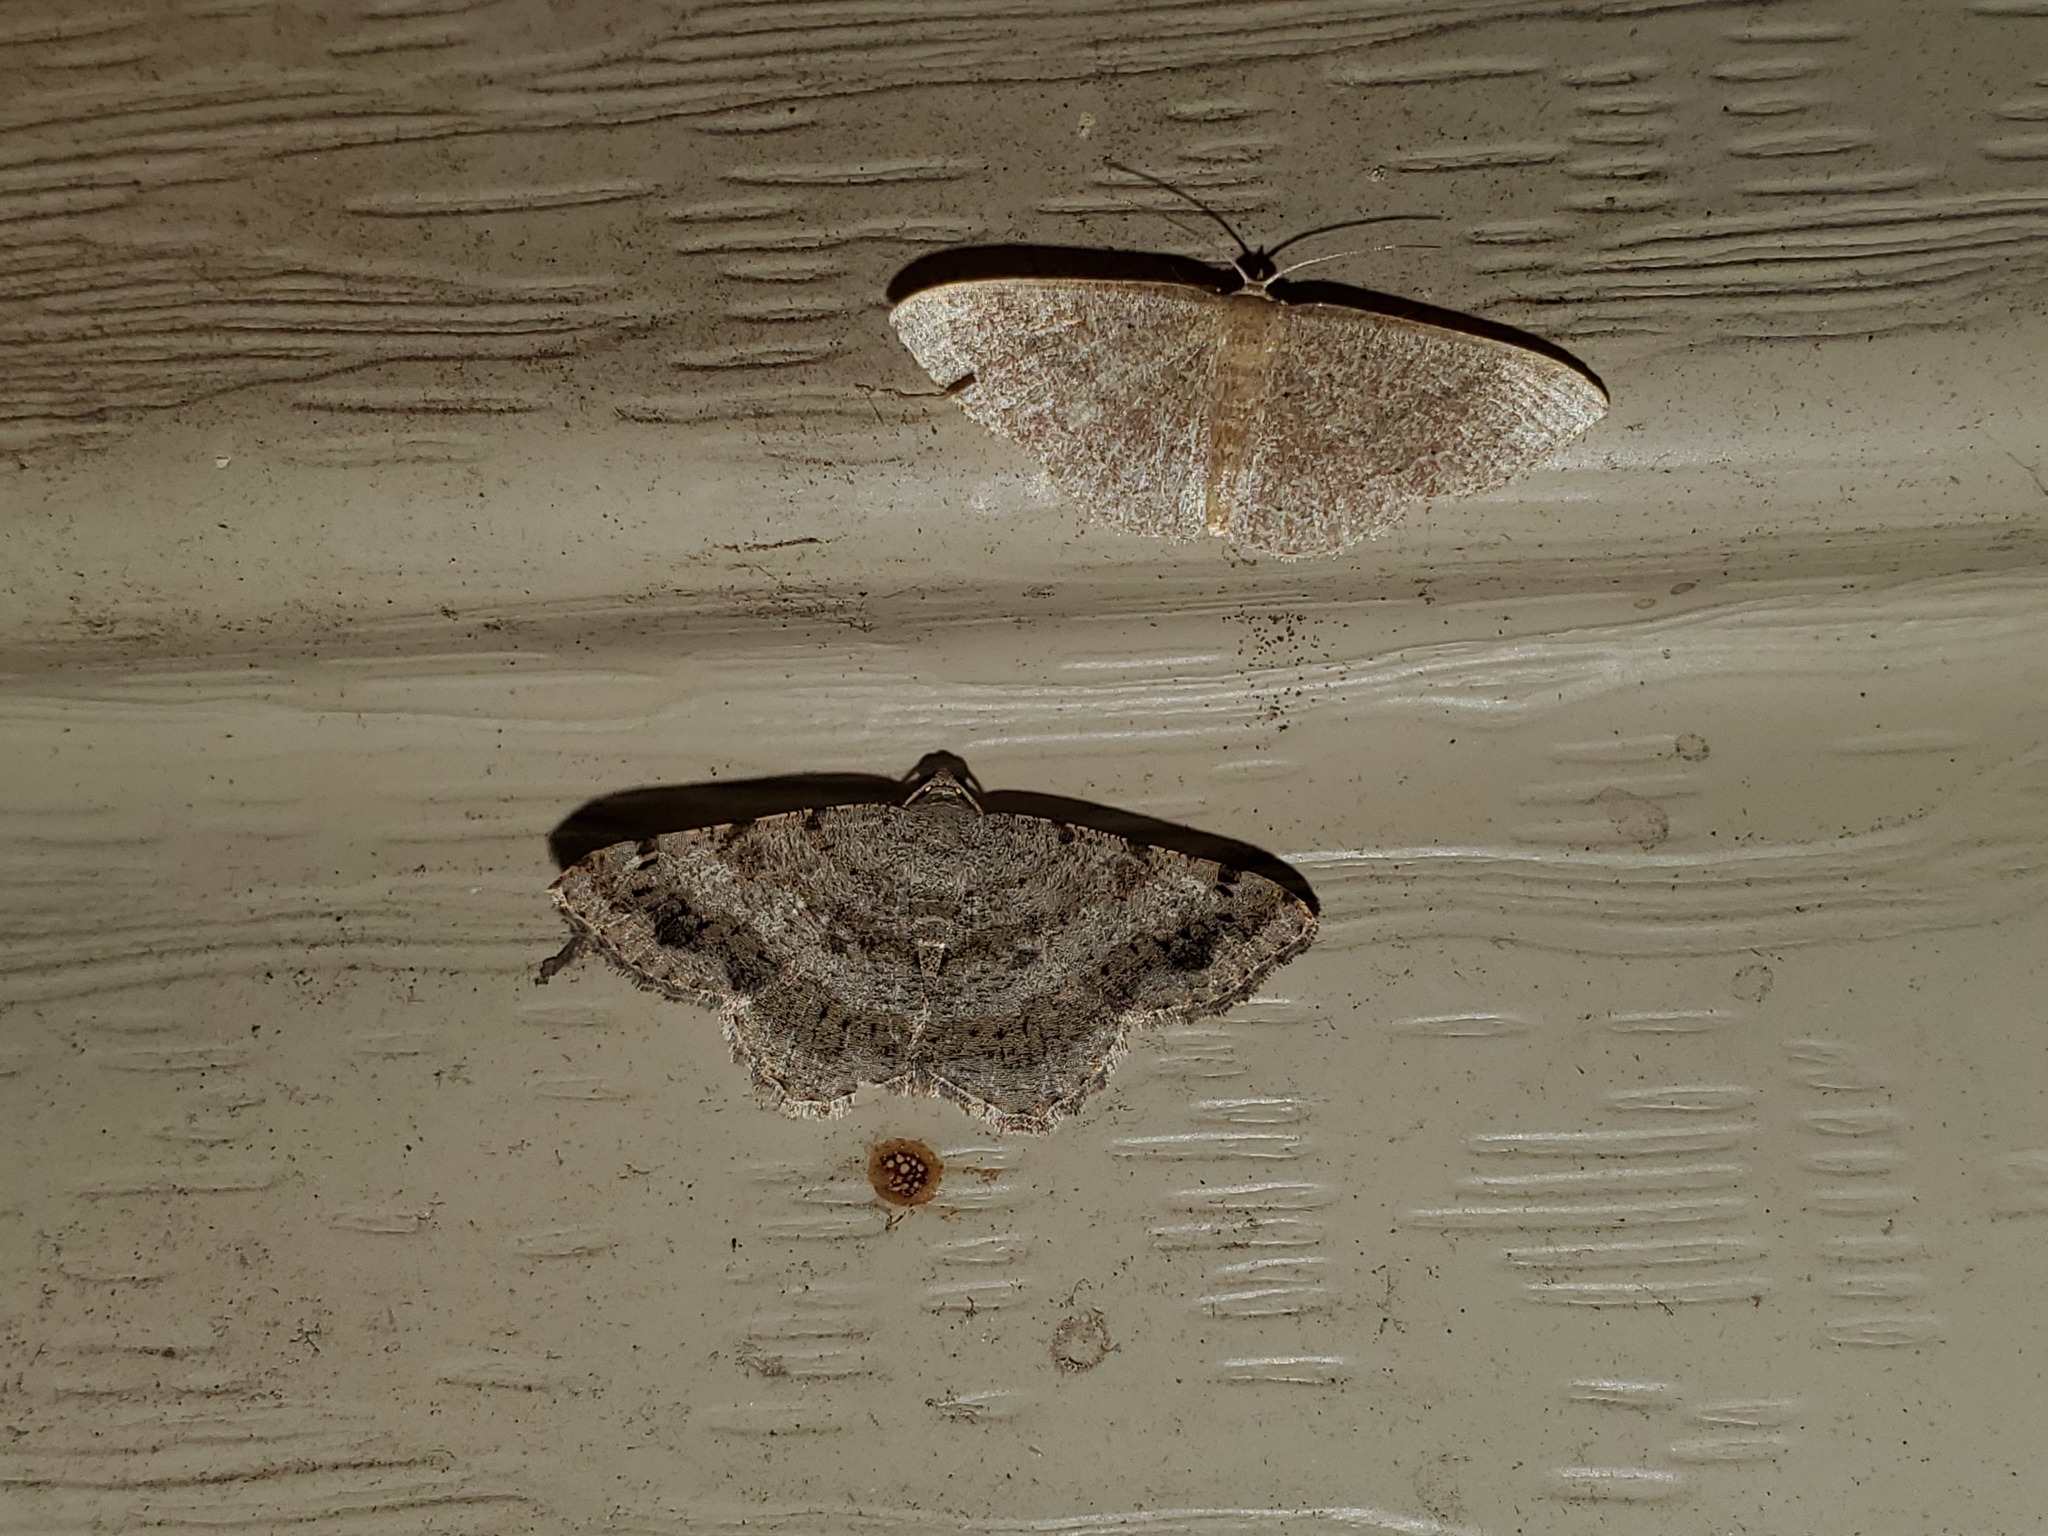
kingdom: Animalia
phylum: Arthropoda
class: Insecta
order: Lepidoptera
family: Geometridae
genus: Digrammia
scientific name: Digrammia ocellinata
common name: Faint-spotted angle
